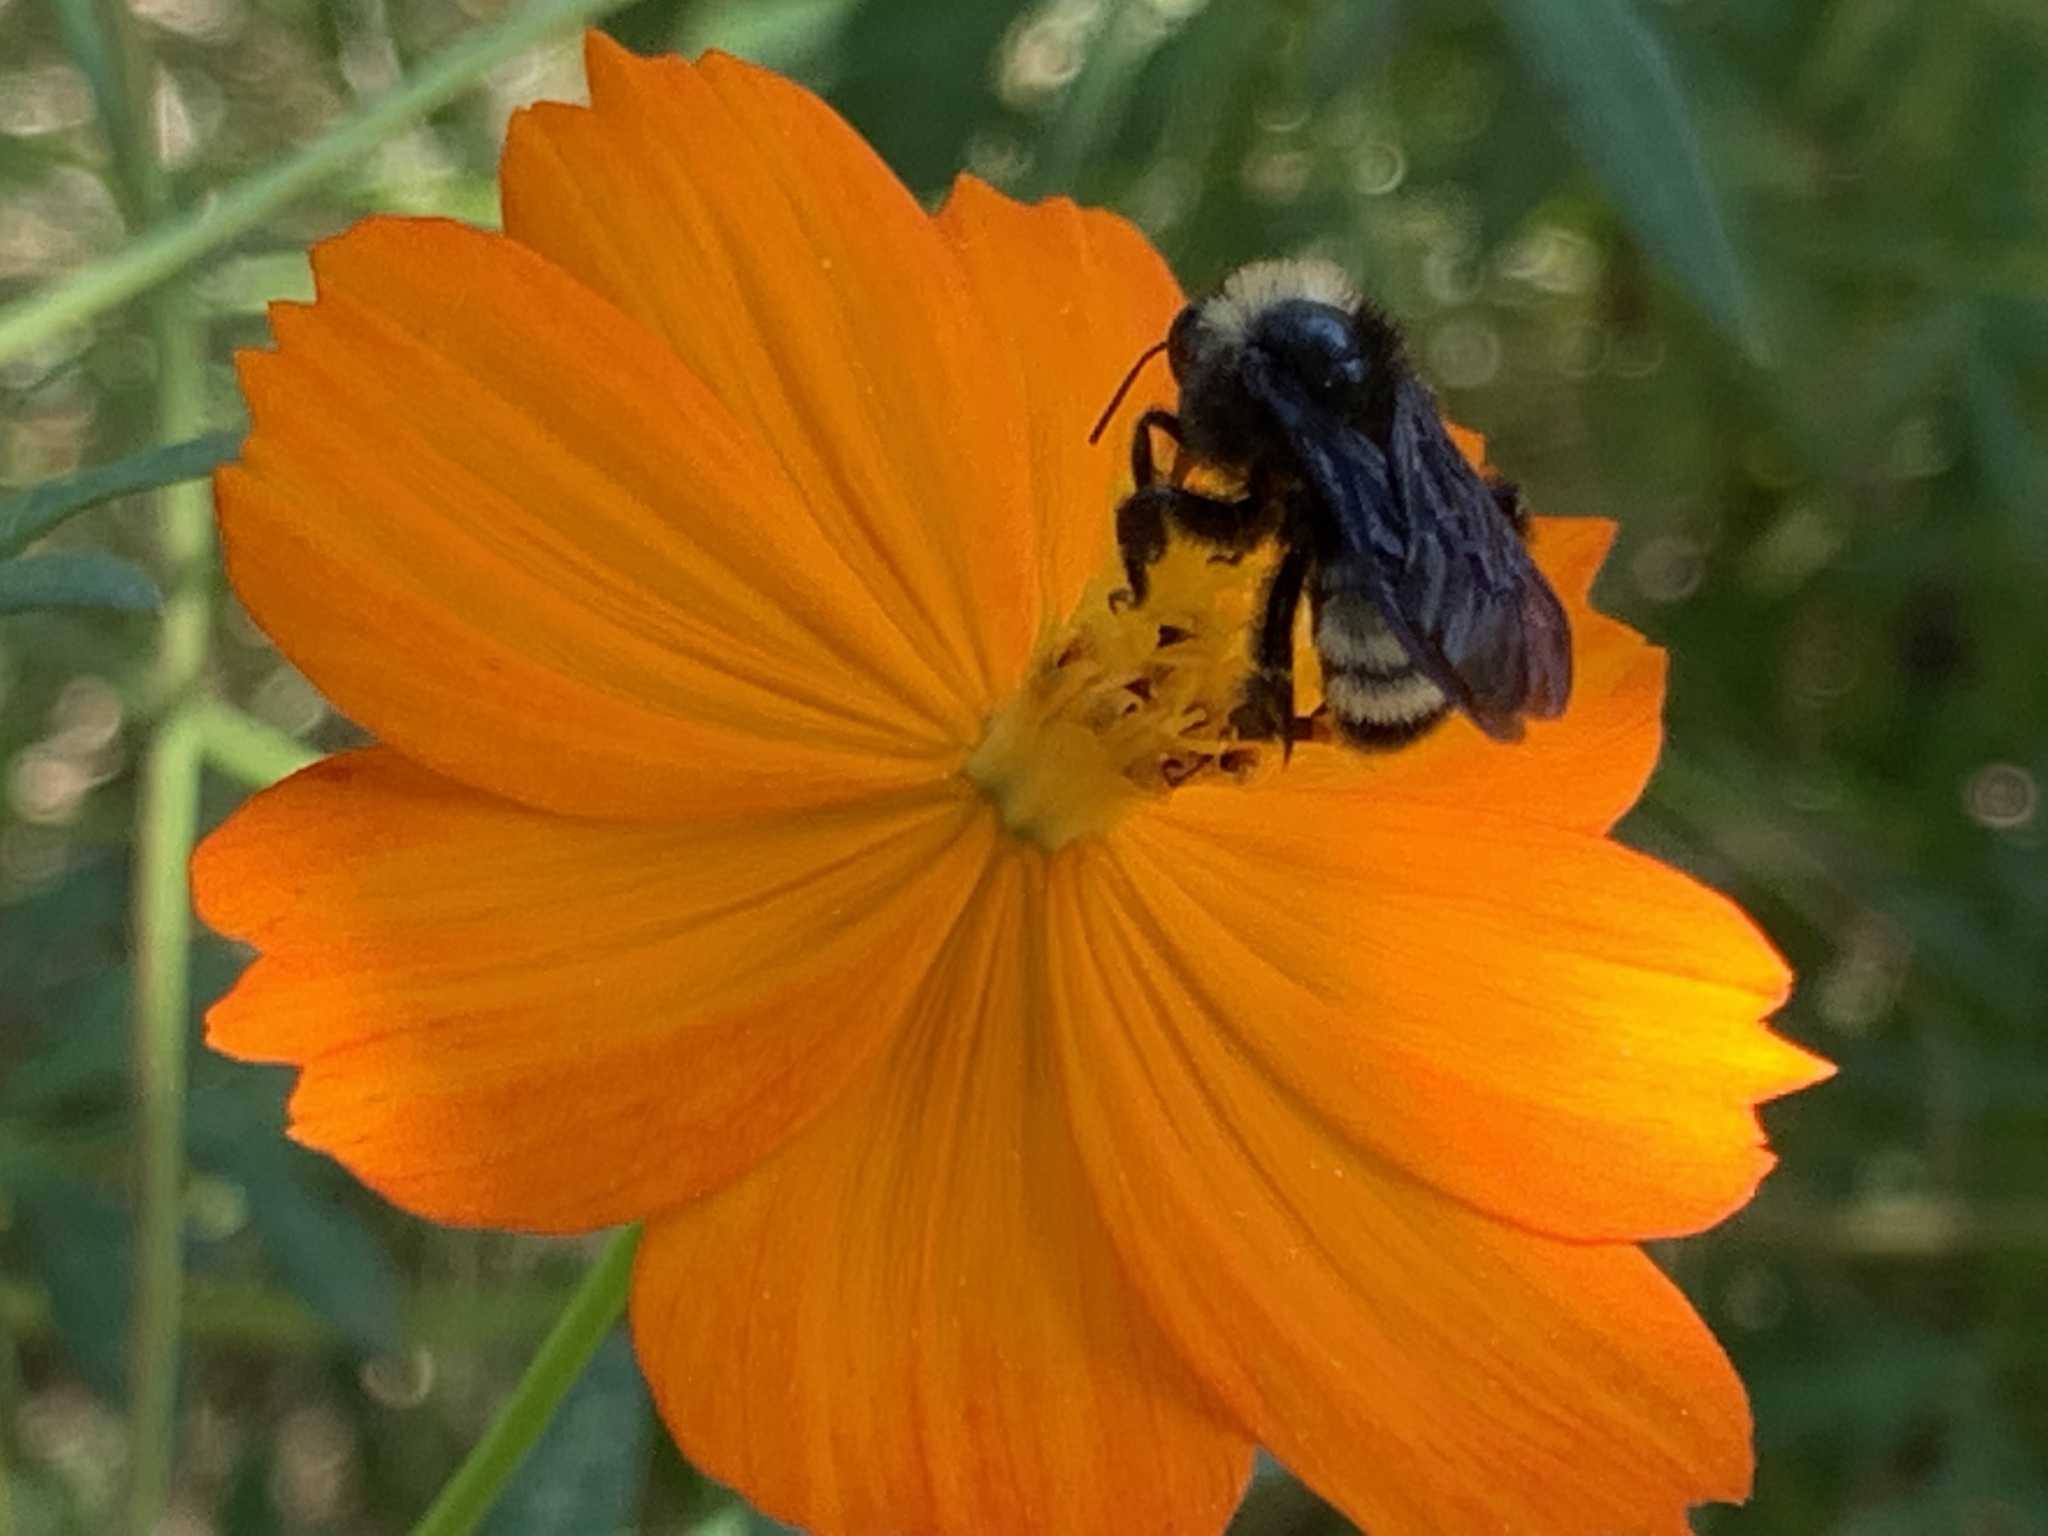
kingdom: Animalia
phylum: Arthropoda
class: Insecta
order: Hymenoptera
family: Apidae
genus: Bombus
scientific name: Bombus pensylvanicus
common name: Bumble bee
